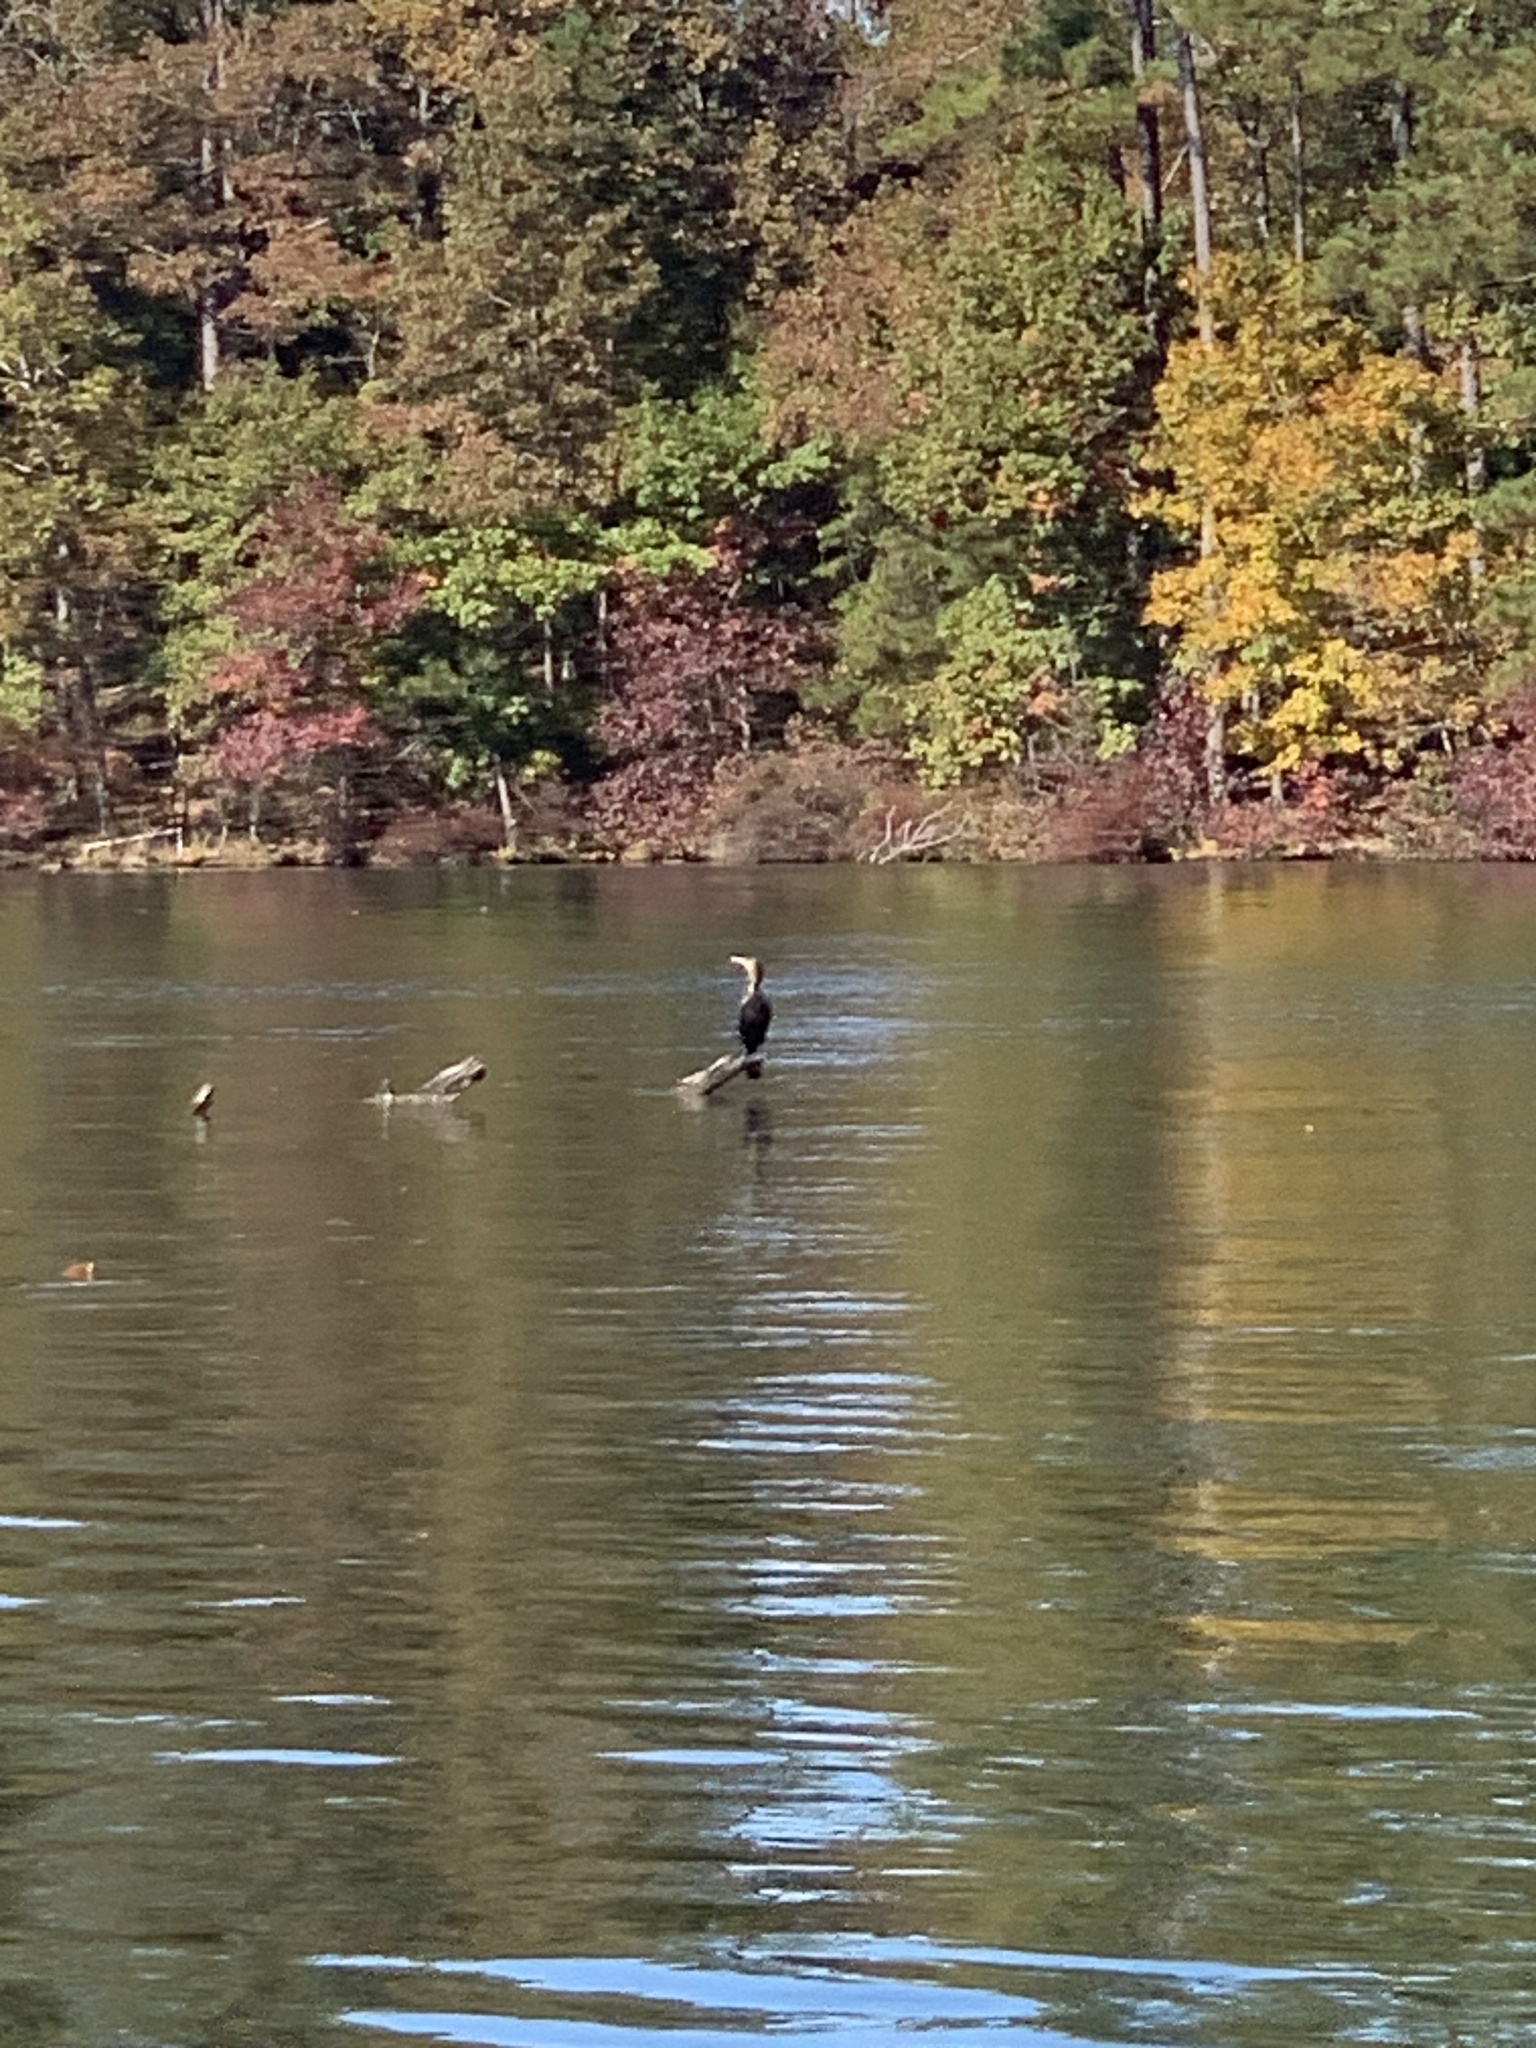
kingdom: Animalia
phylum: Chordata
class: Aves
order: Suliformes
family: Phalacrocoracidae
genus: Phalacrocorax
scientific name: Phalacrocorax auritus
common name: Double-crested cormorant
